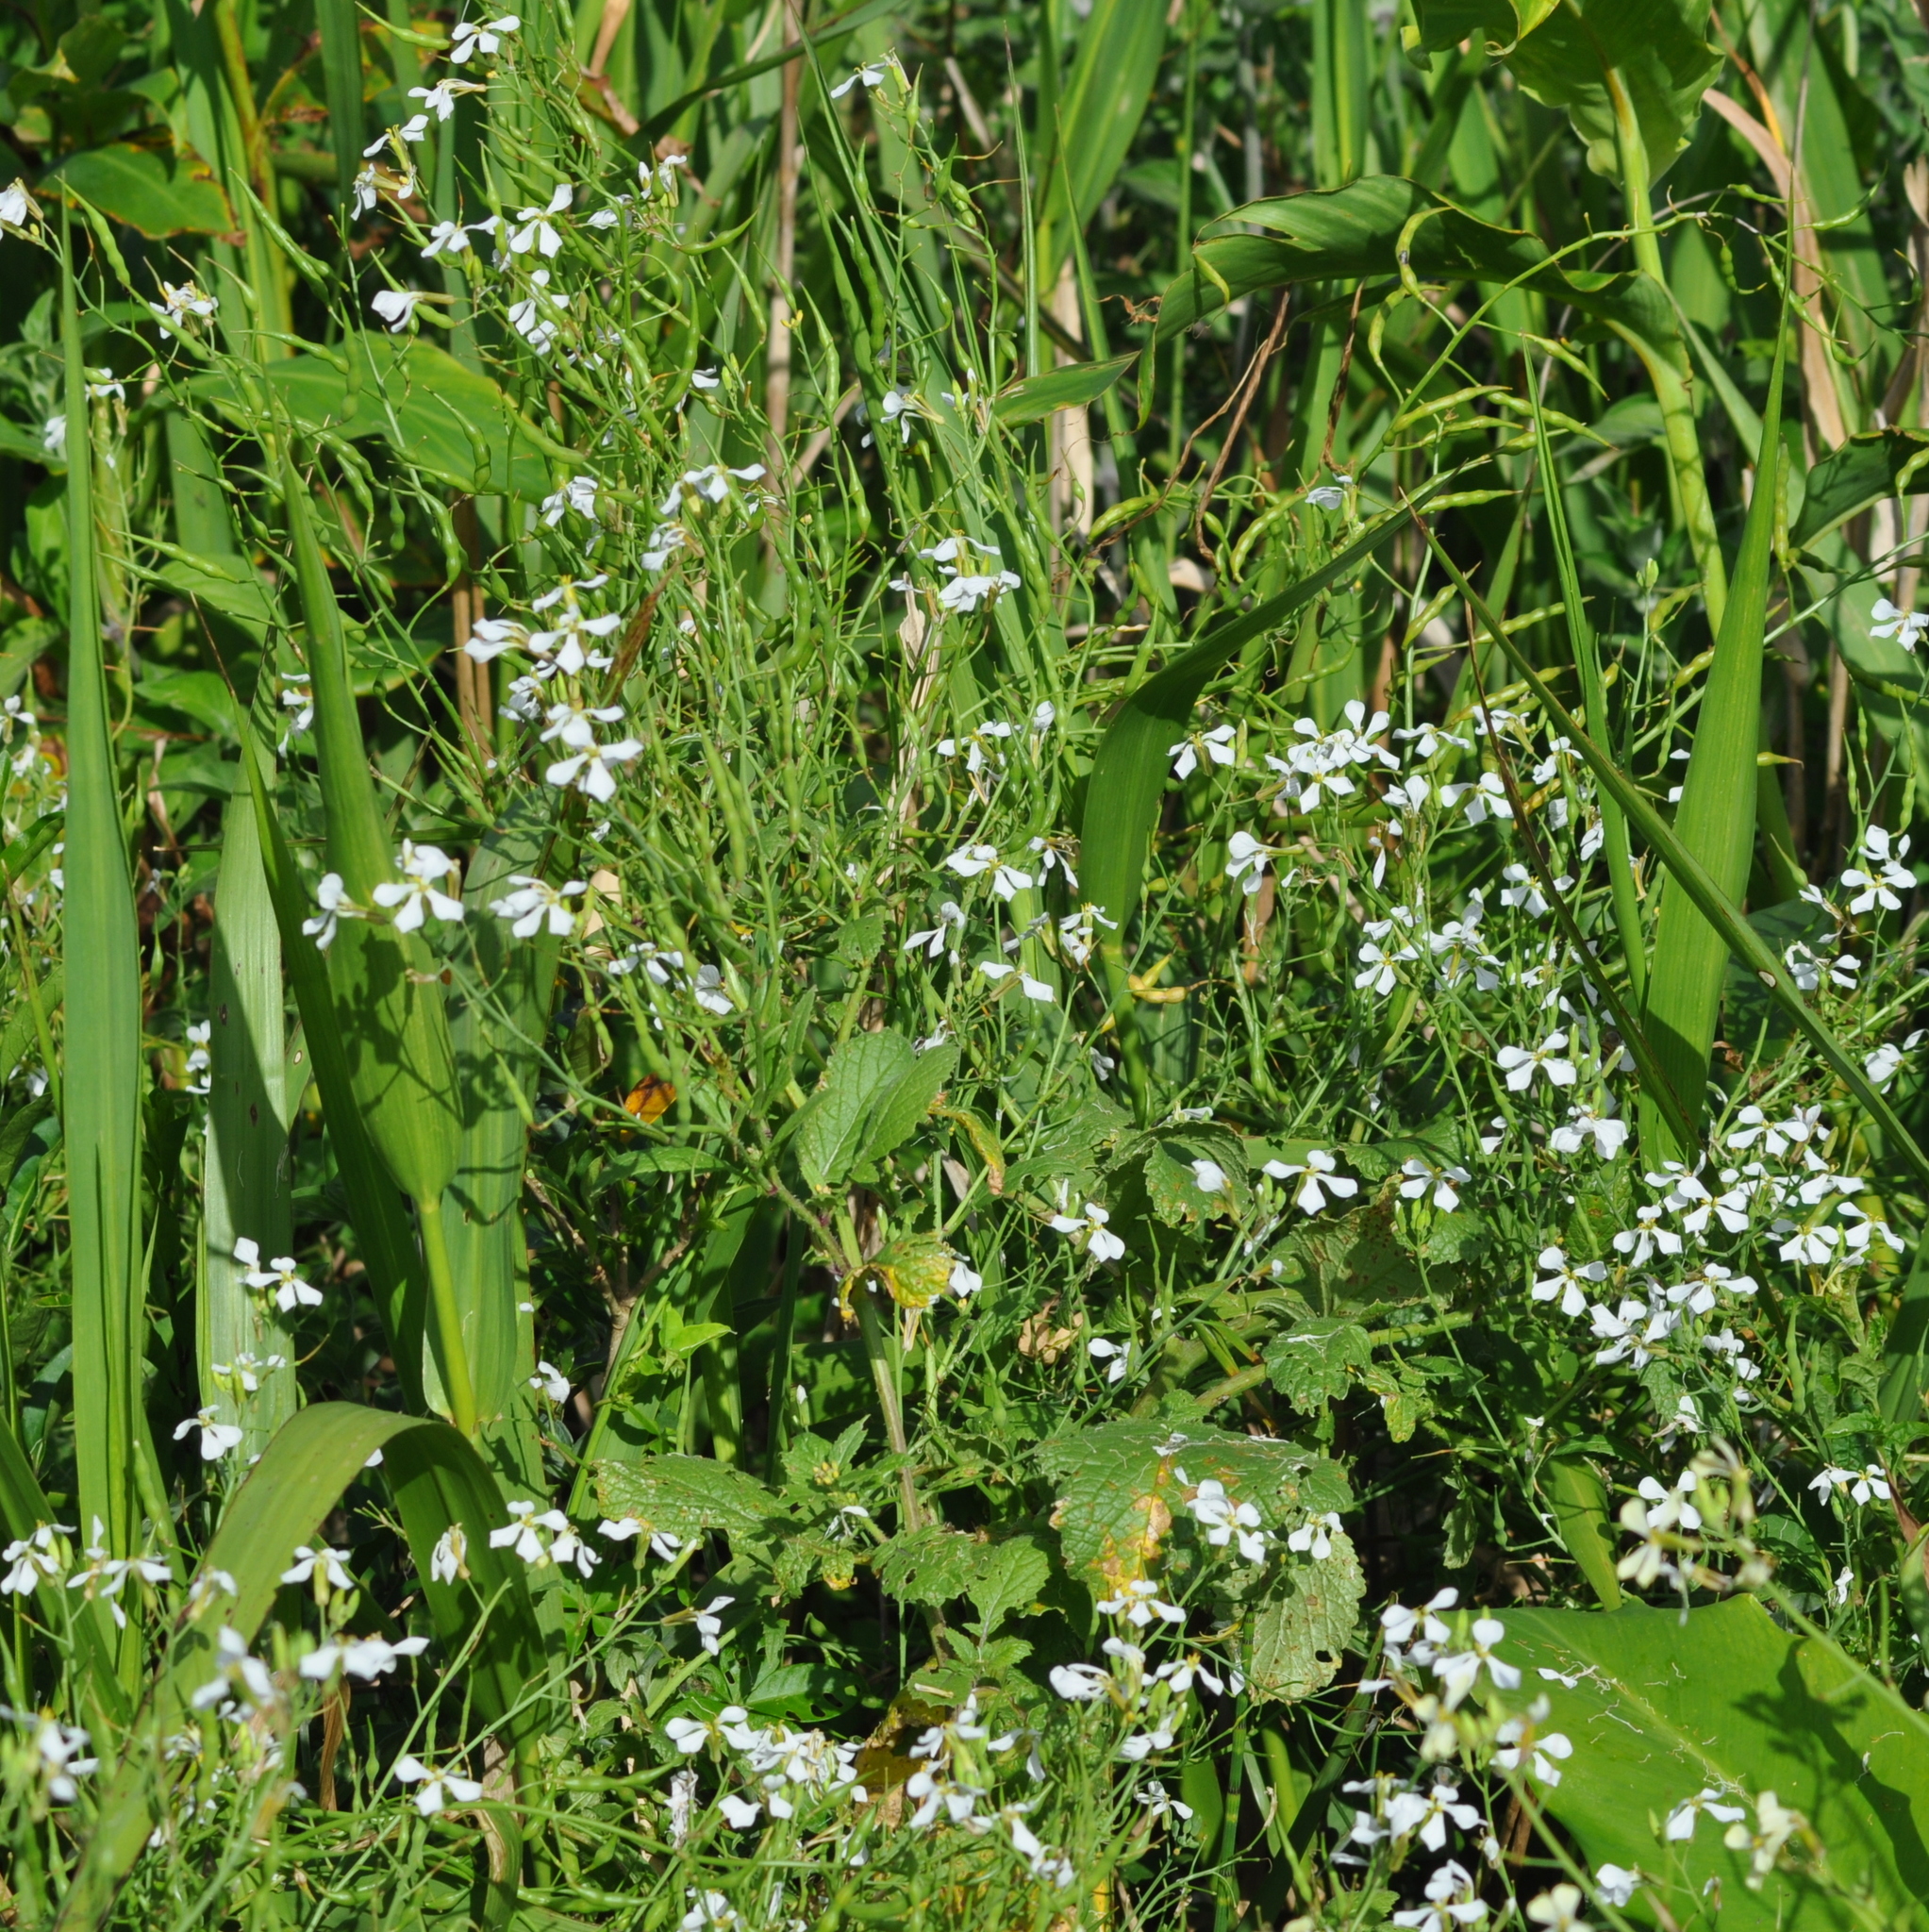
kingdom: Plantae
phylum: Tracheophyta
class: Magnoliopsida
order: Brassicales
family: Brassicaceae
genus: Raphanus
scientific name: Raphanus raphanistrum
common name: Wild radish
